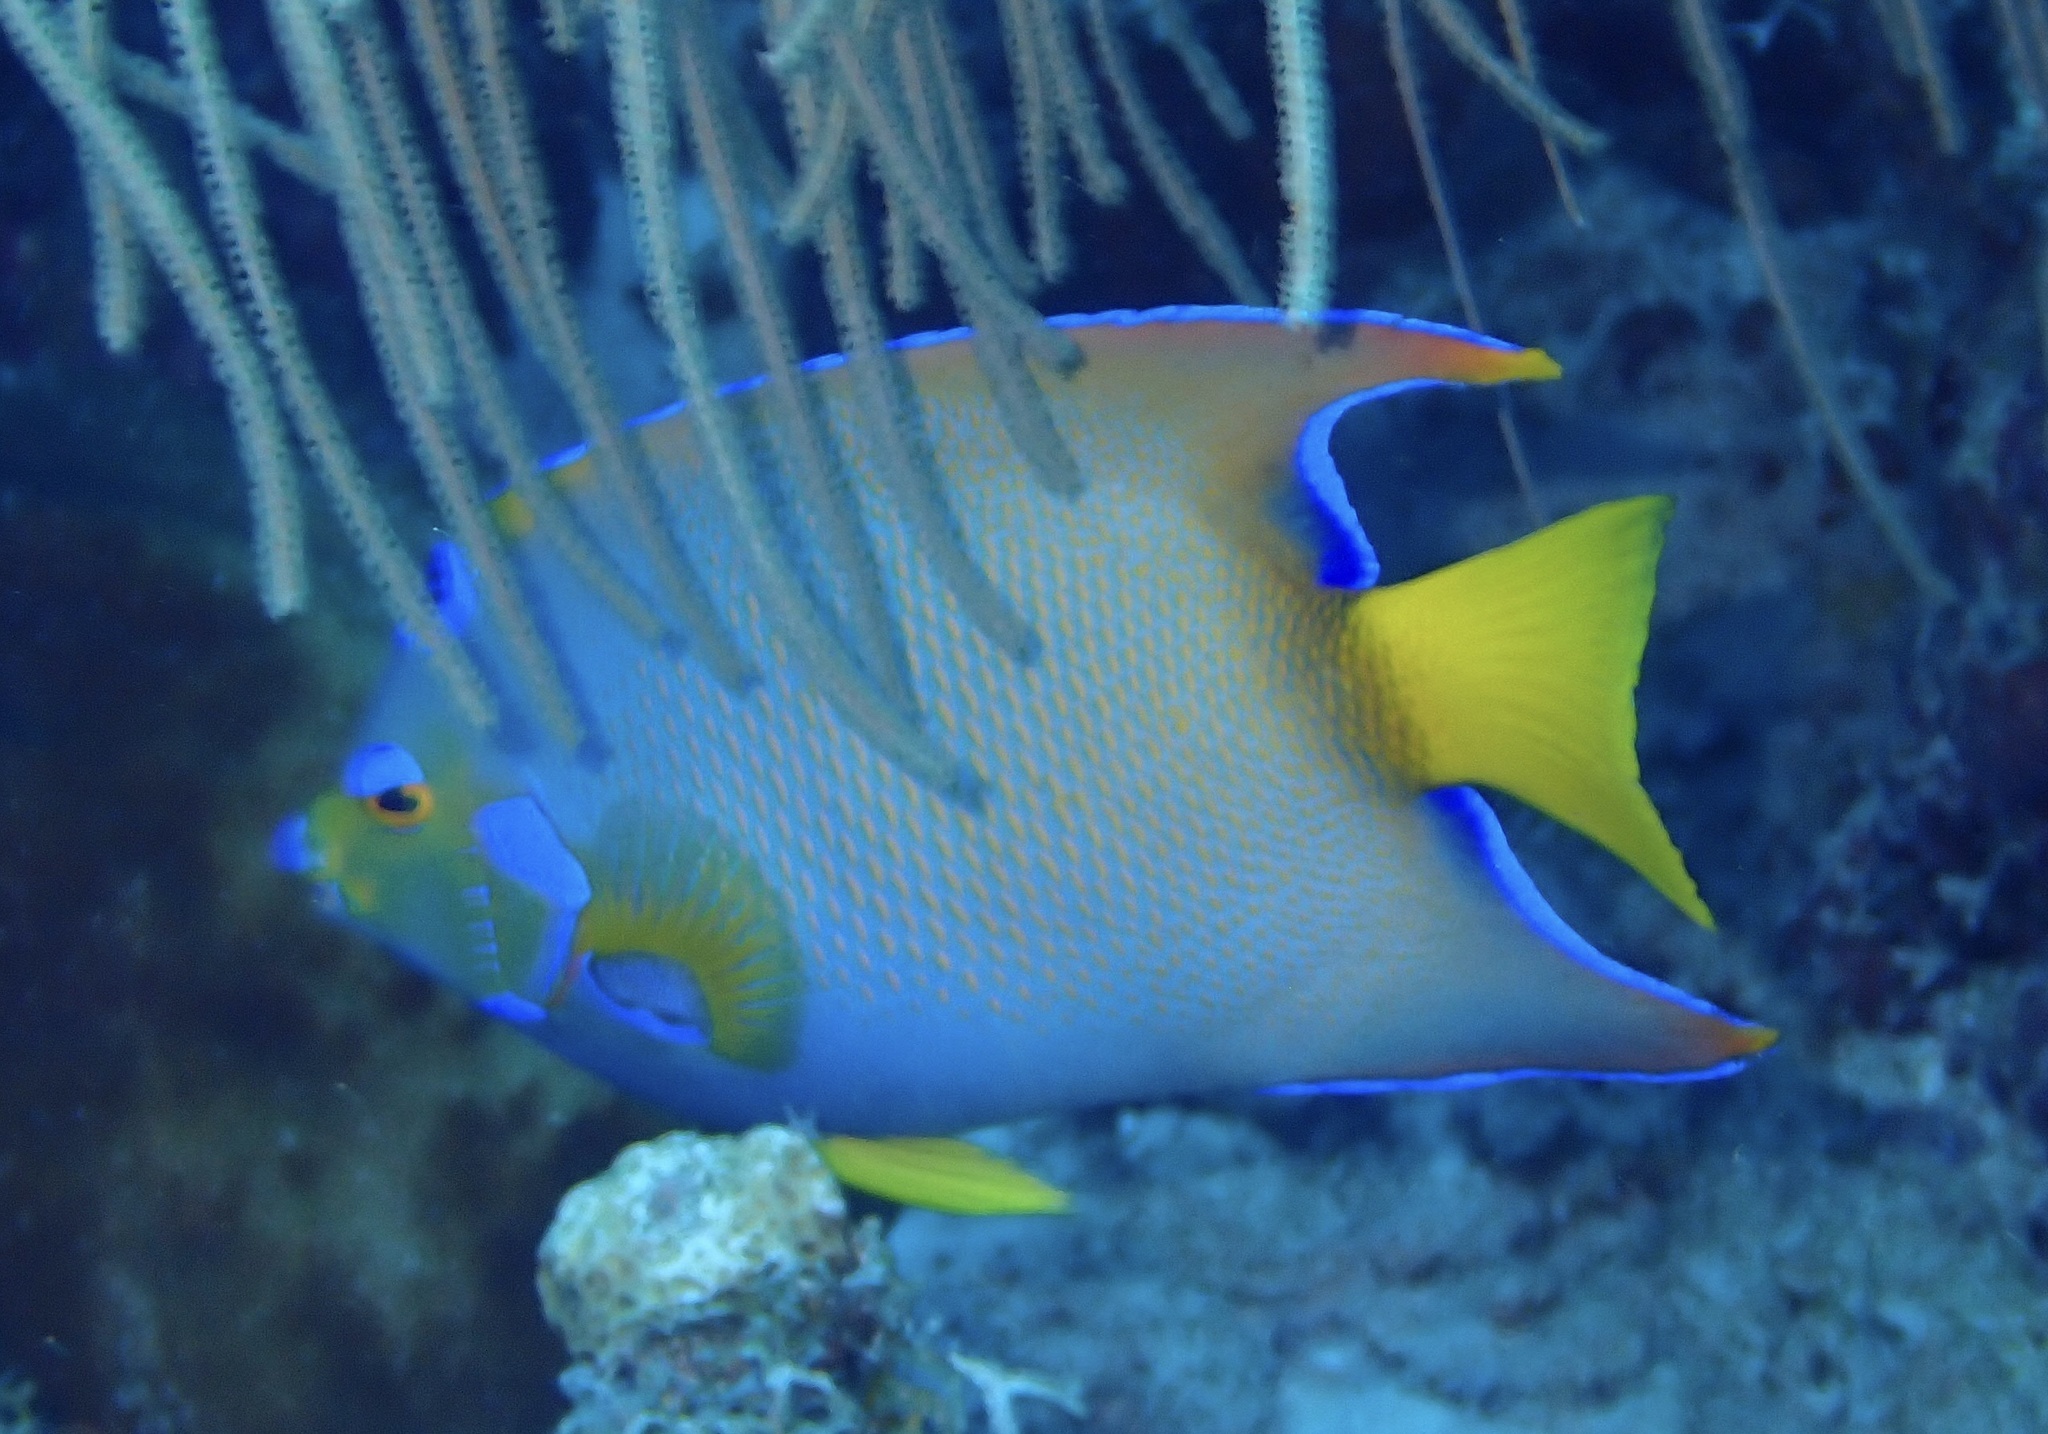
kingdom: Animalia
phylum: Chordata
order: Perciformes
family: Pomacanthidae
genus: Holacanthus
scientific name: Holacanthus ciliaris
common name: Queen angelfish
